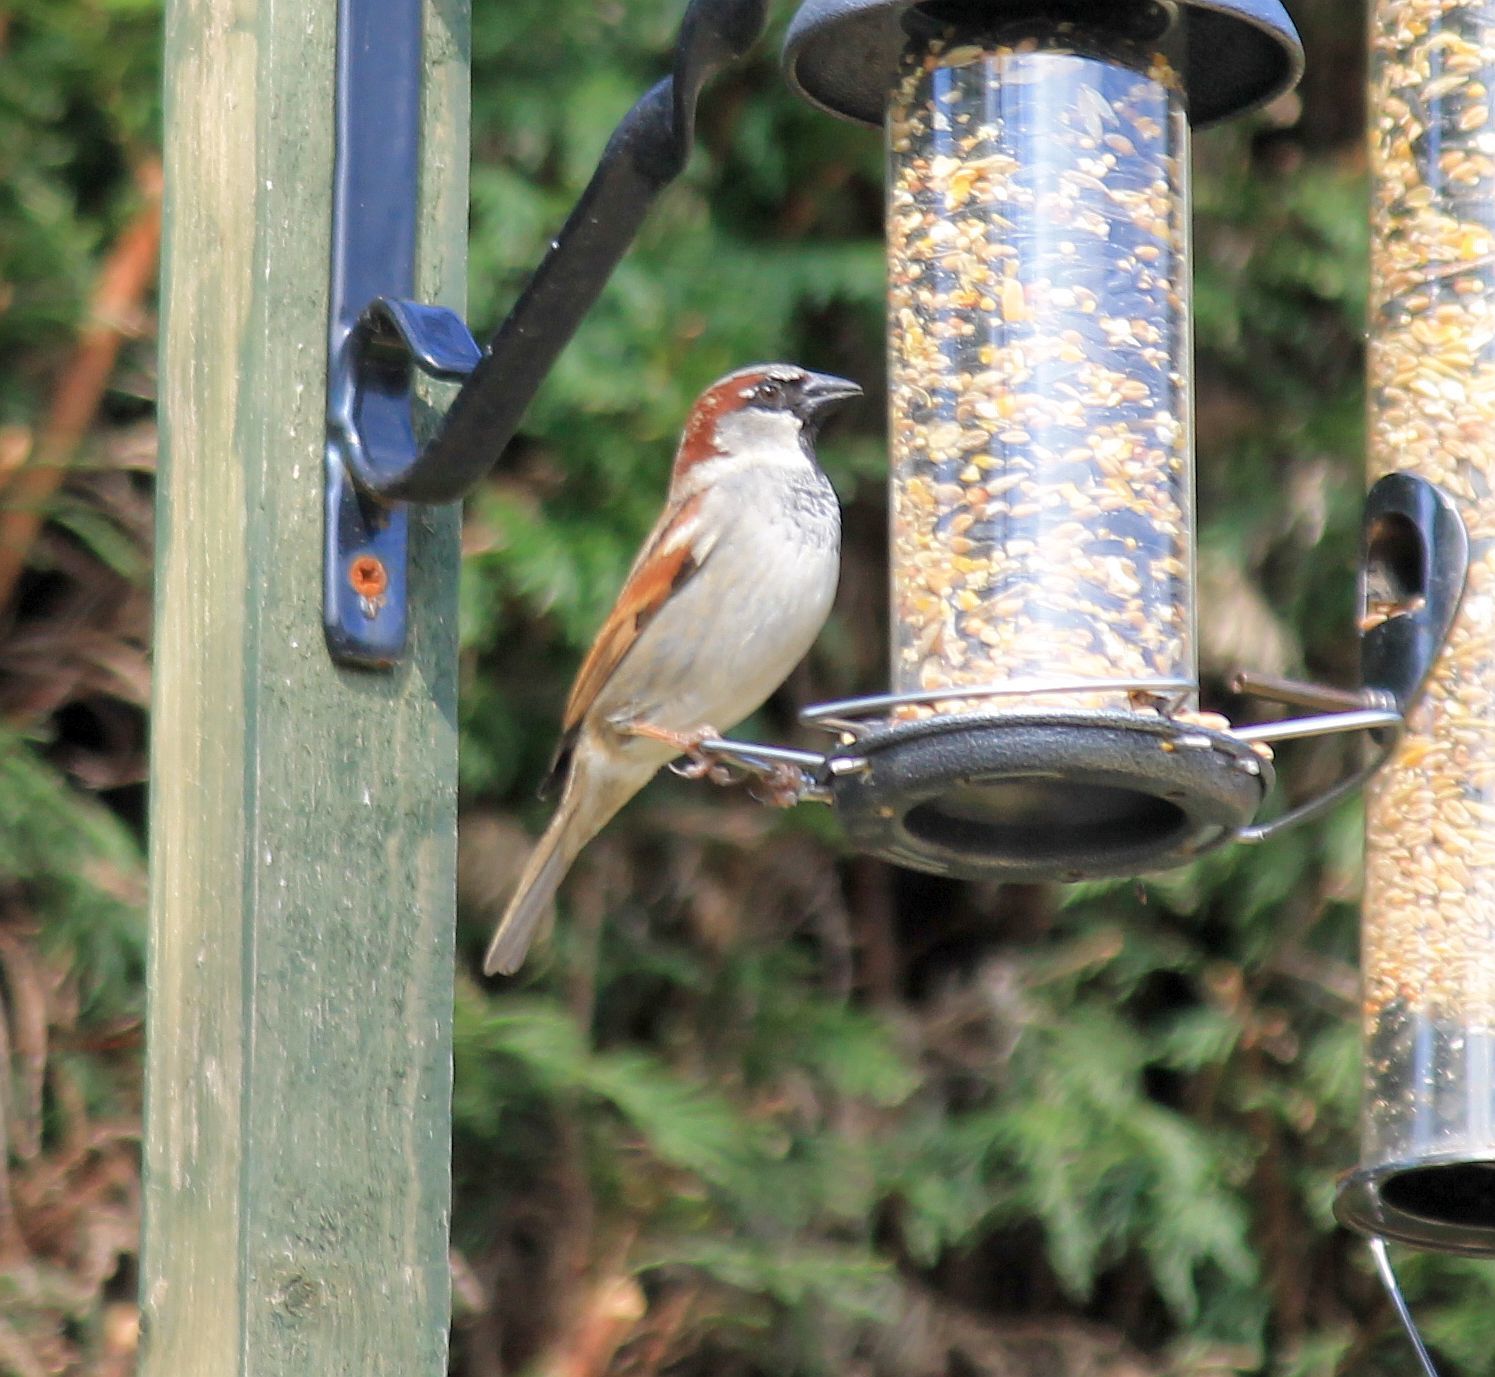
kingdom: Animalia
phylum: Chordata
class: Aves
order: Passeriformes
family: Passeridae
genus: Passer
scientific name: Passer domesticus
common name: House sparrow
